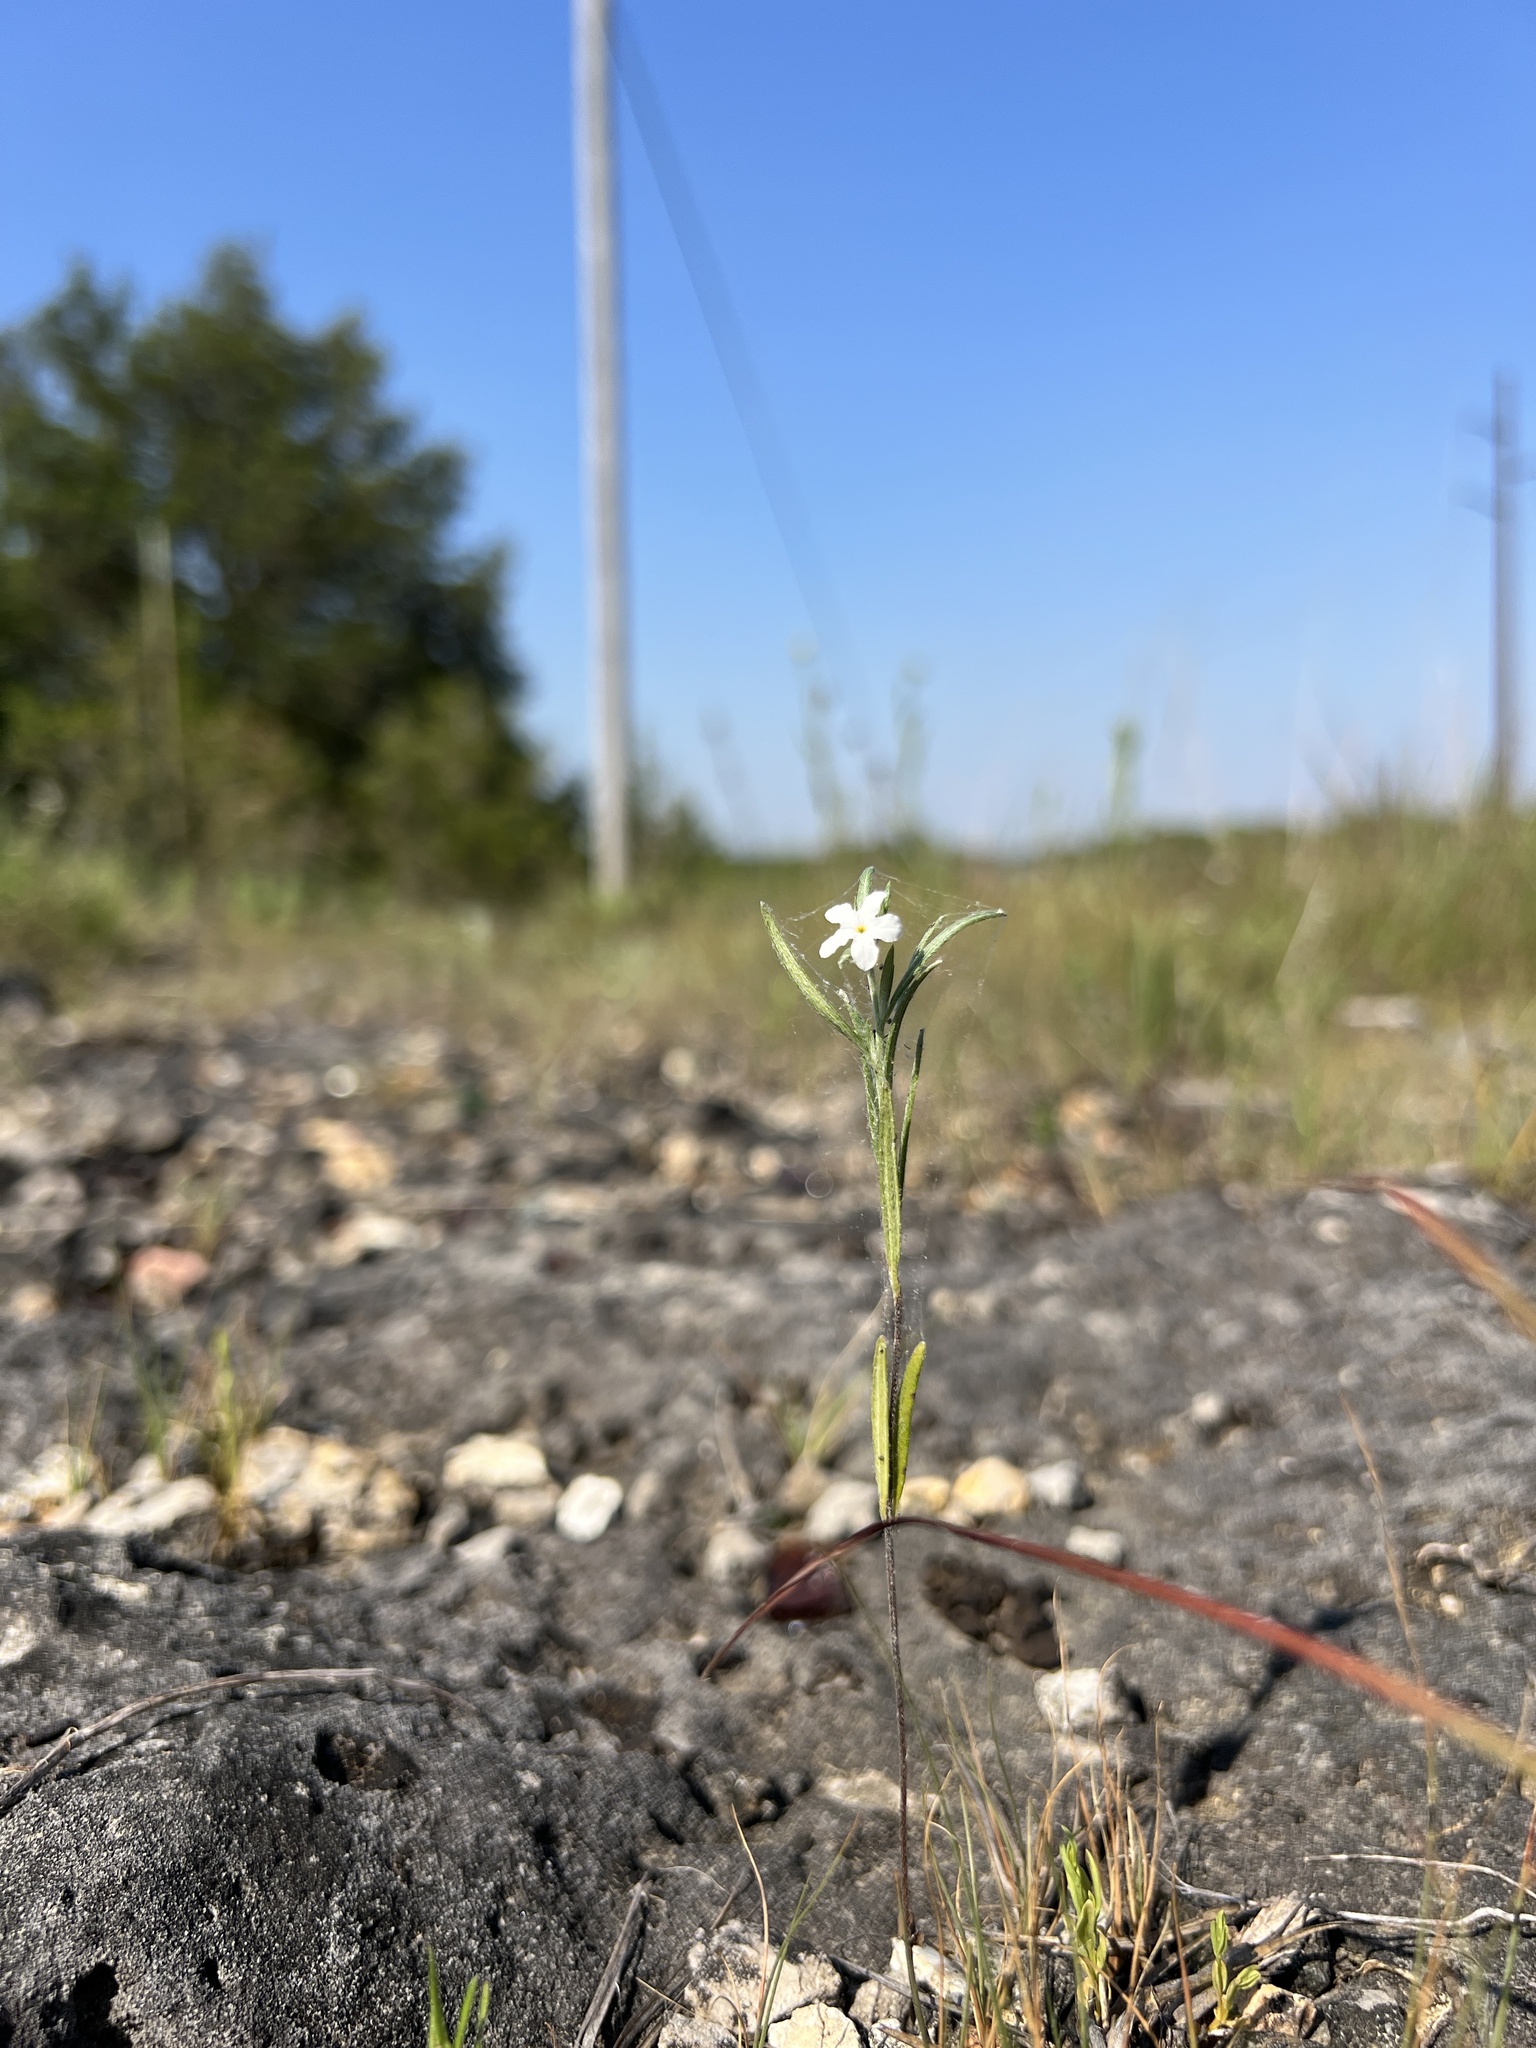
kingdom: Plantae
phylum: Tracheophyta
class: Magnoliopsida
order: Boraginales
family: Heliotropiaceae
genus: Euploca
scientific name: Euploca tenella
